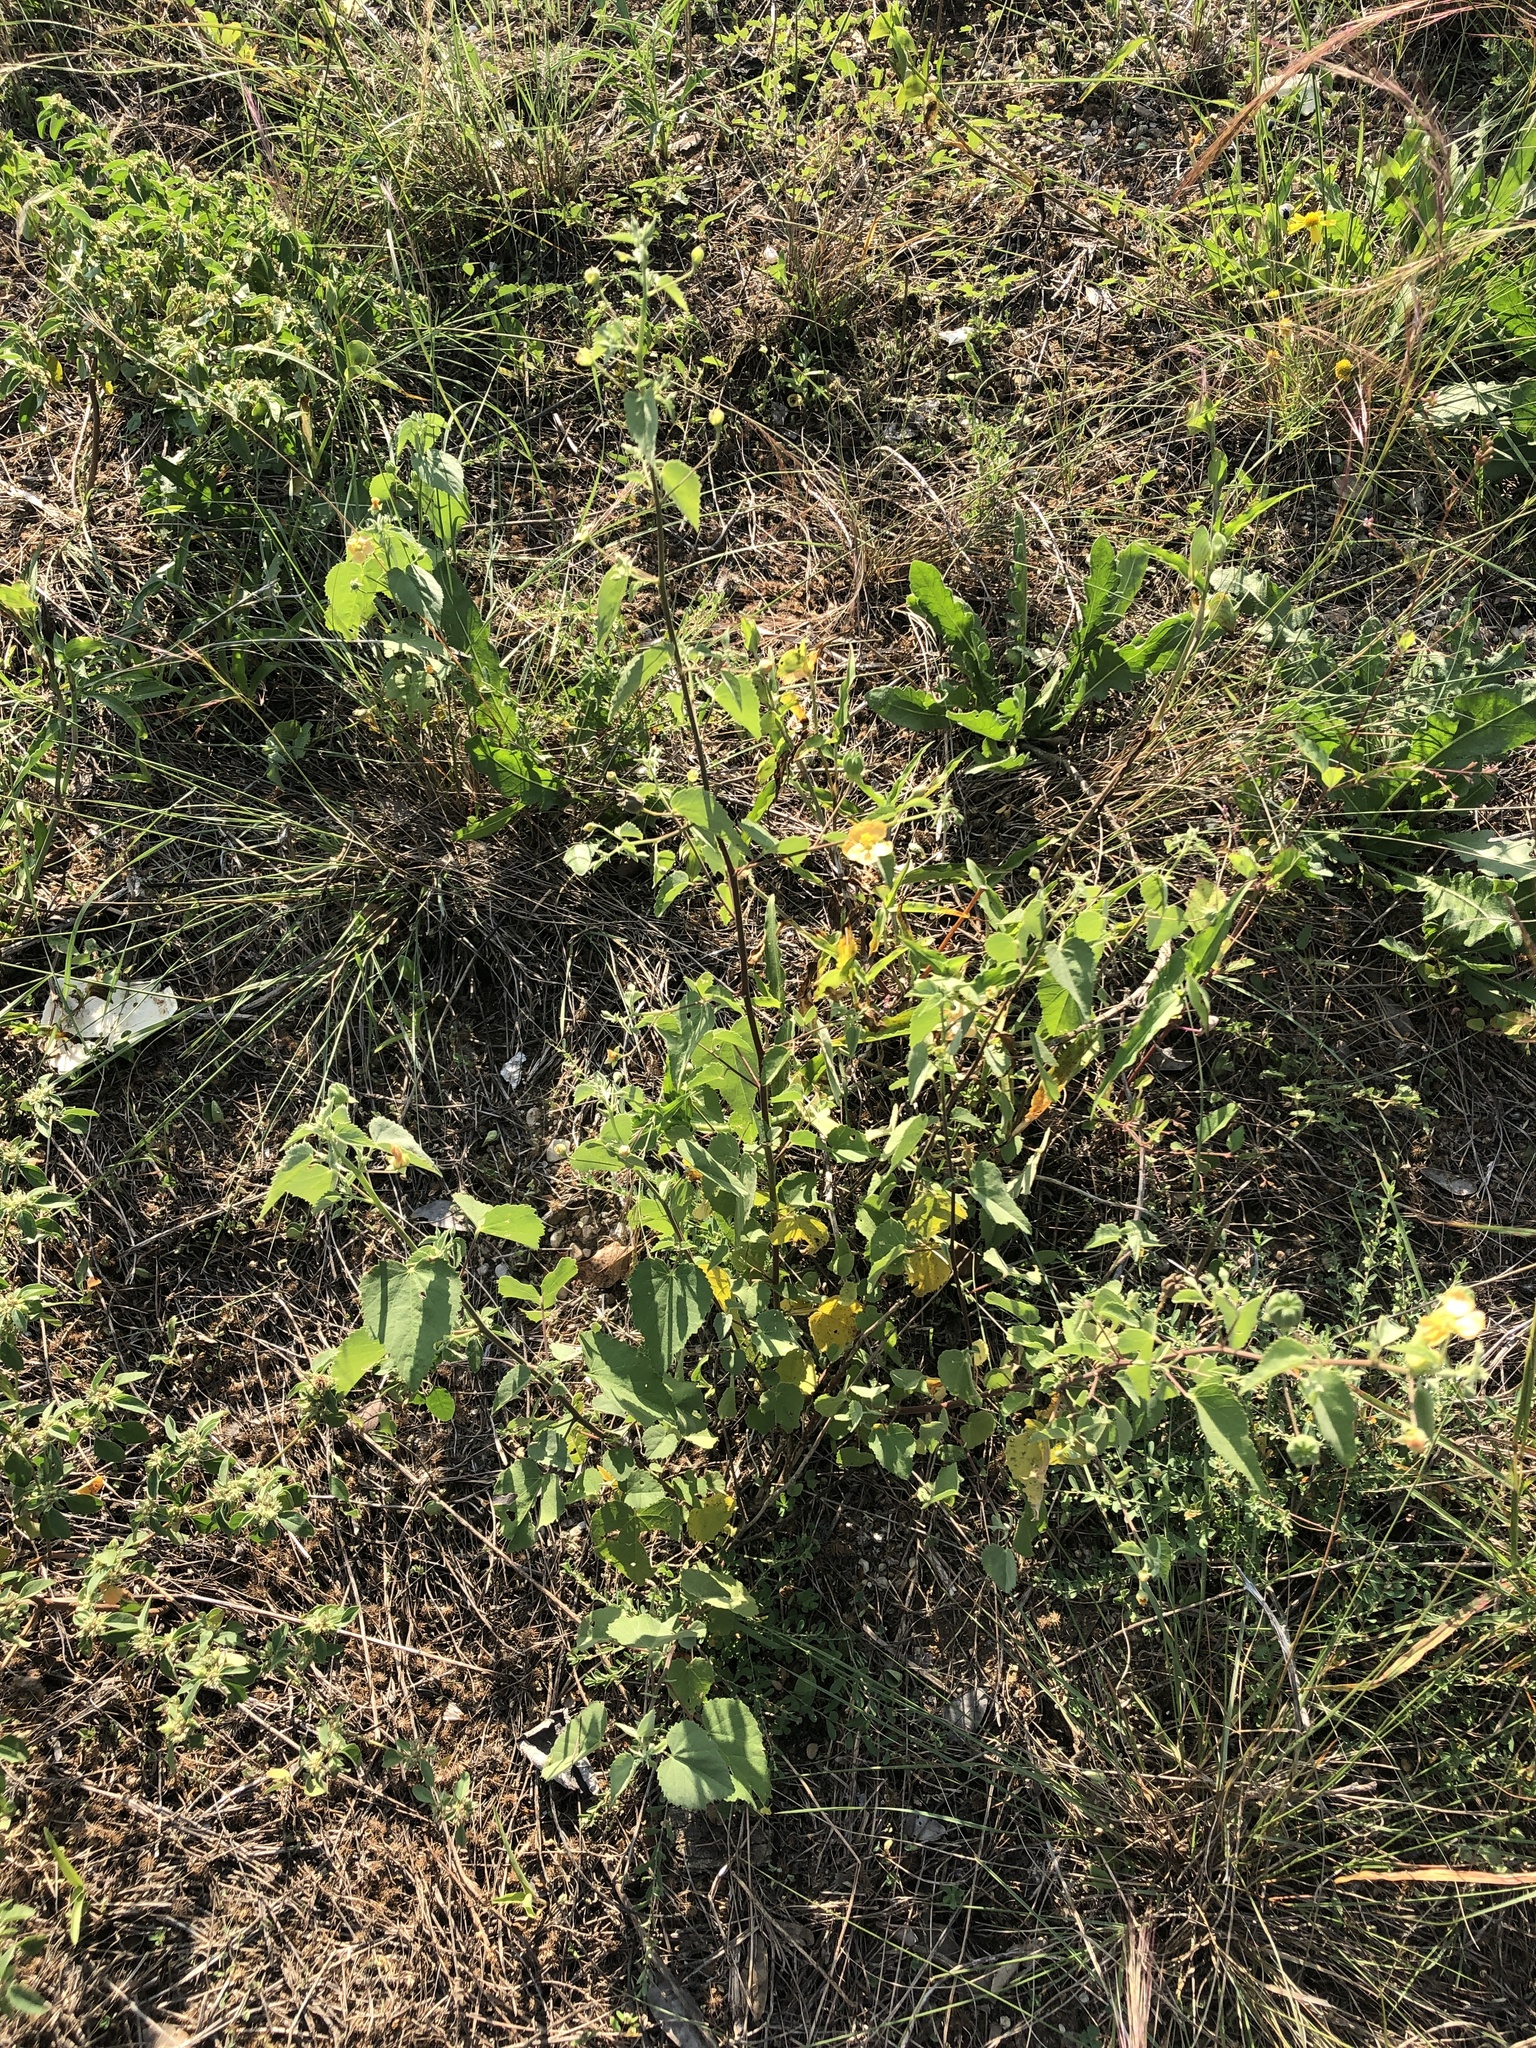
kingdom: Plantae
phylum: Tracheophyta
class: Magnoliopsida
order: Malvales
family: Malvaceae
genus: Abutilon
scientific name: Abutilon fruticosum
